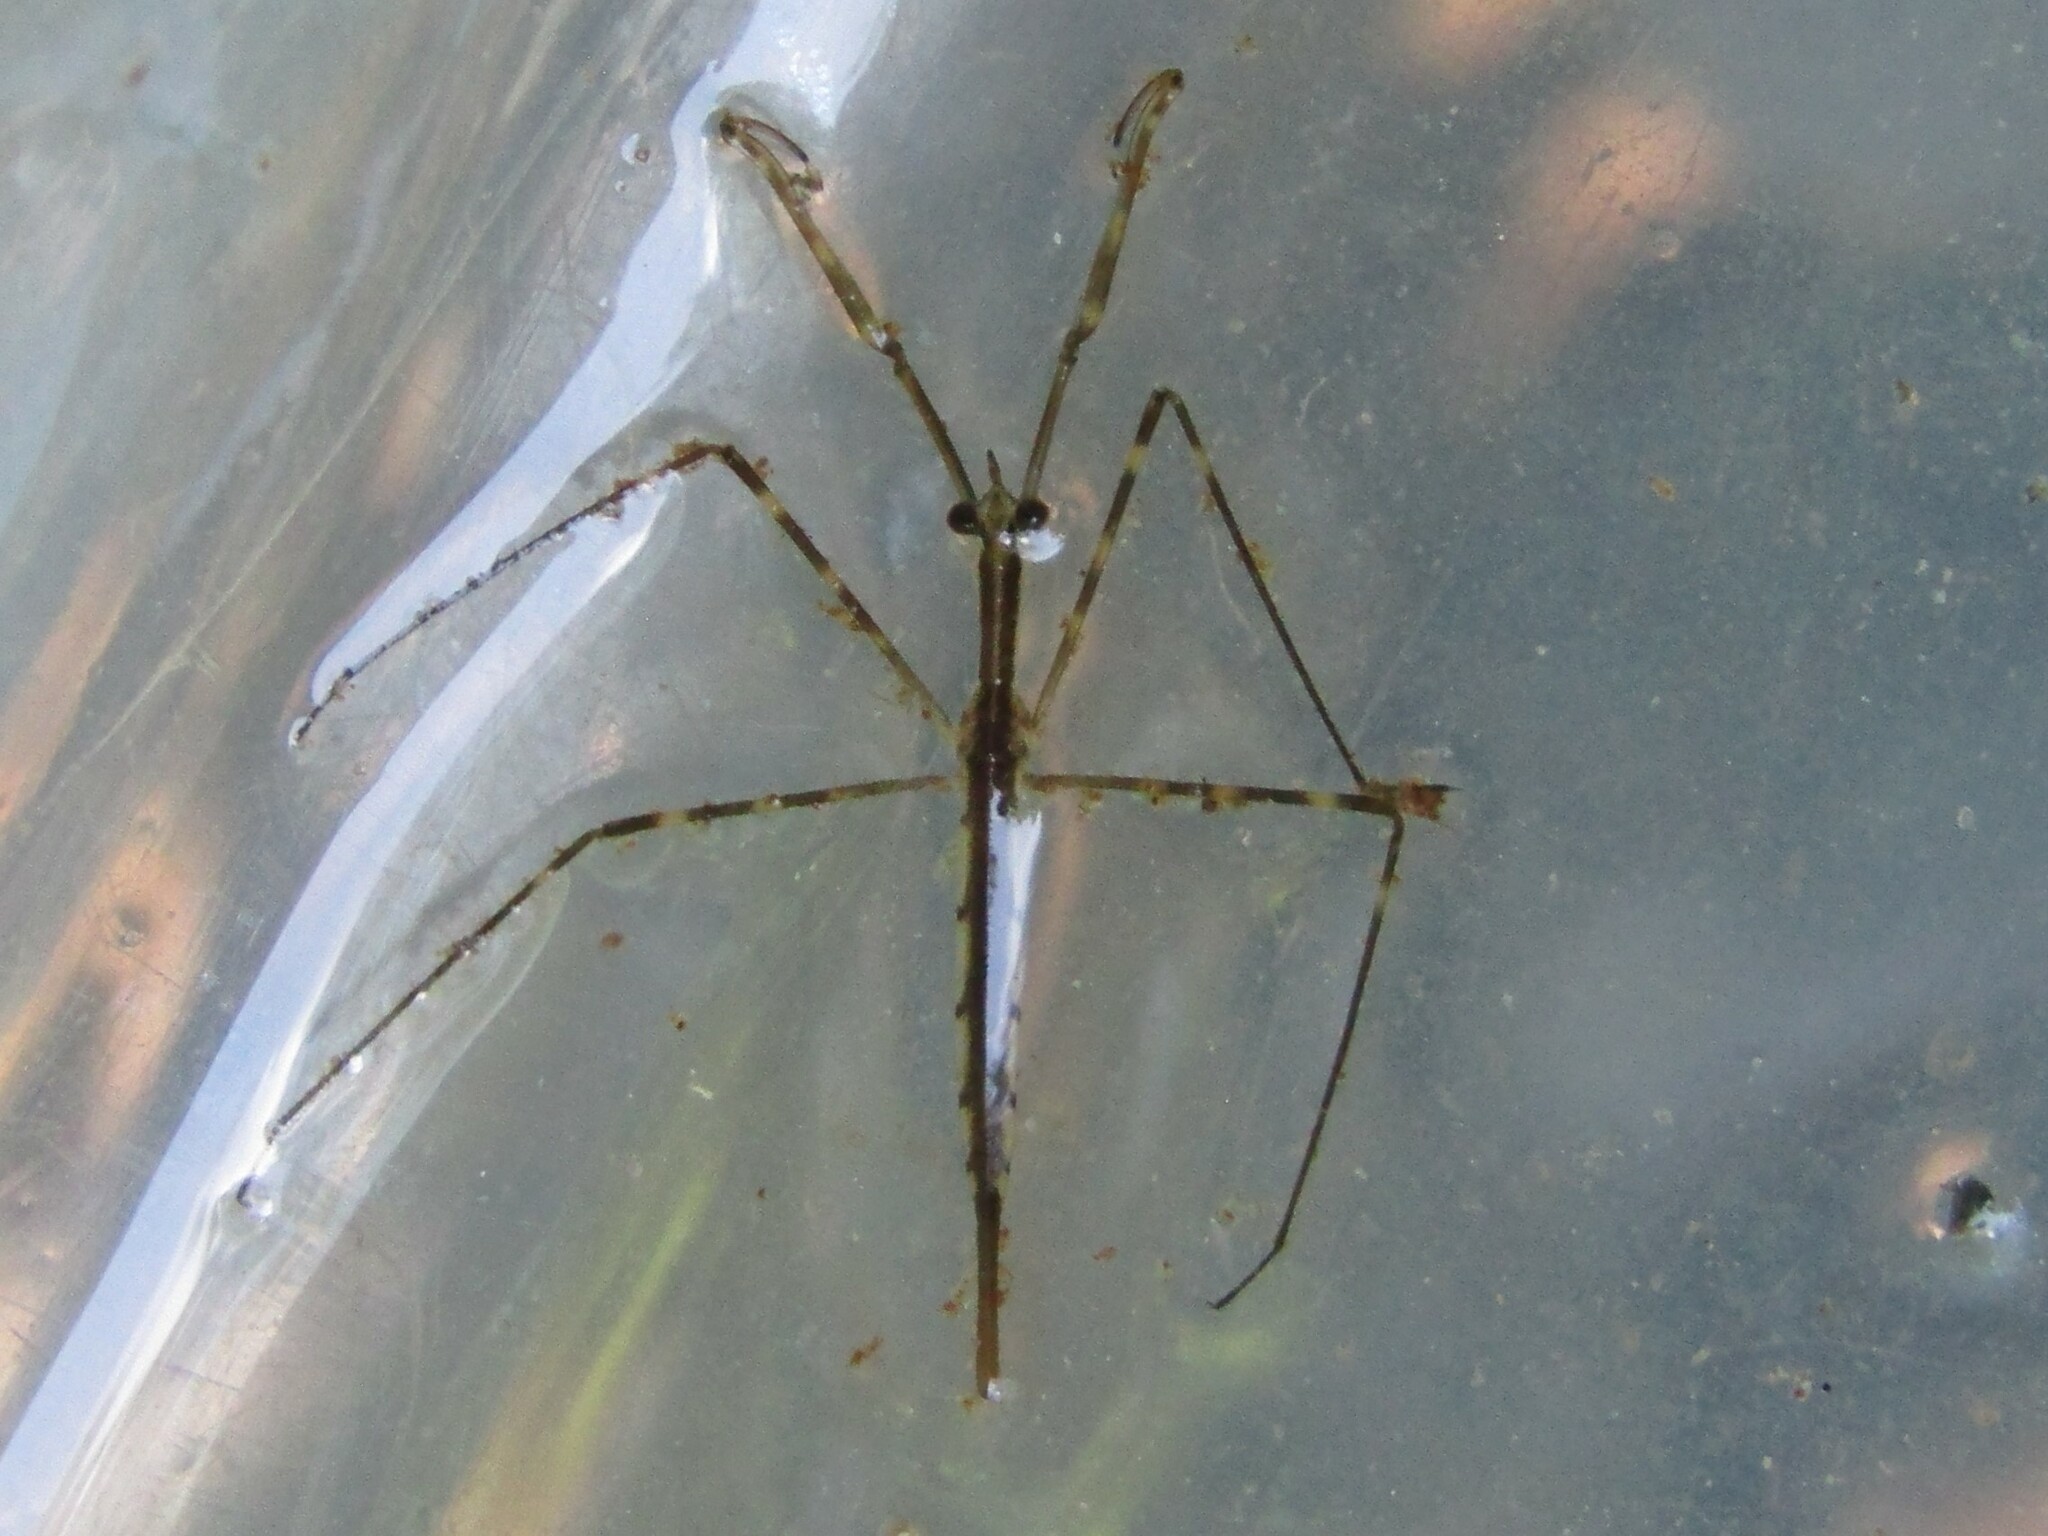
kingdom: Animalia
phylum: Arthropoda
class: Insecta
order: Hemiptera
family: Nepidae
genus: Ranatra
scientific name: Ranatra
